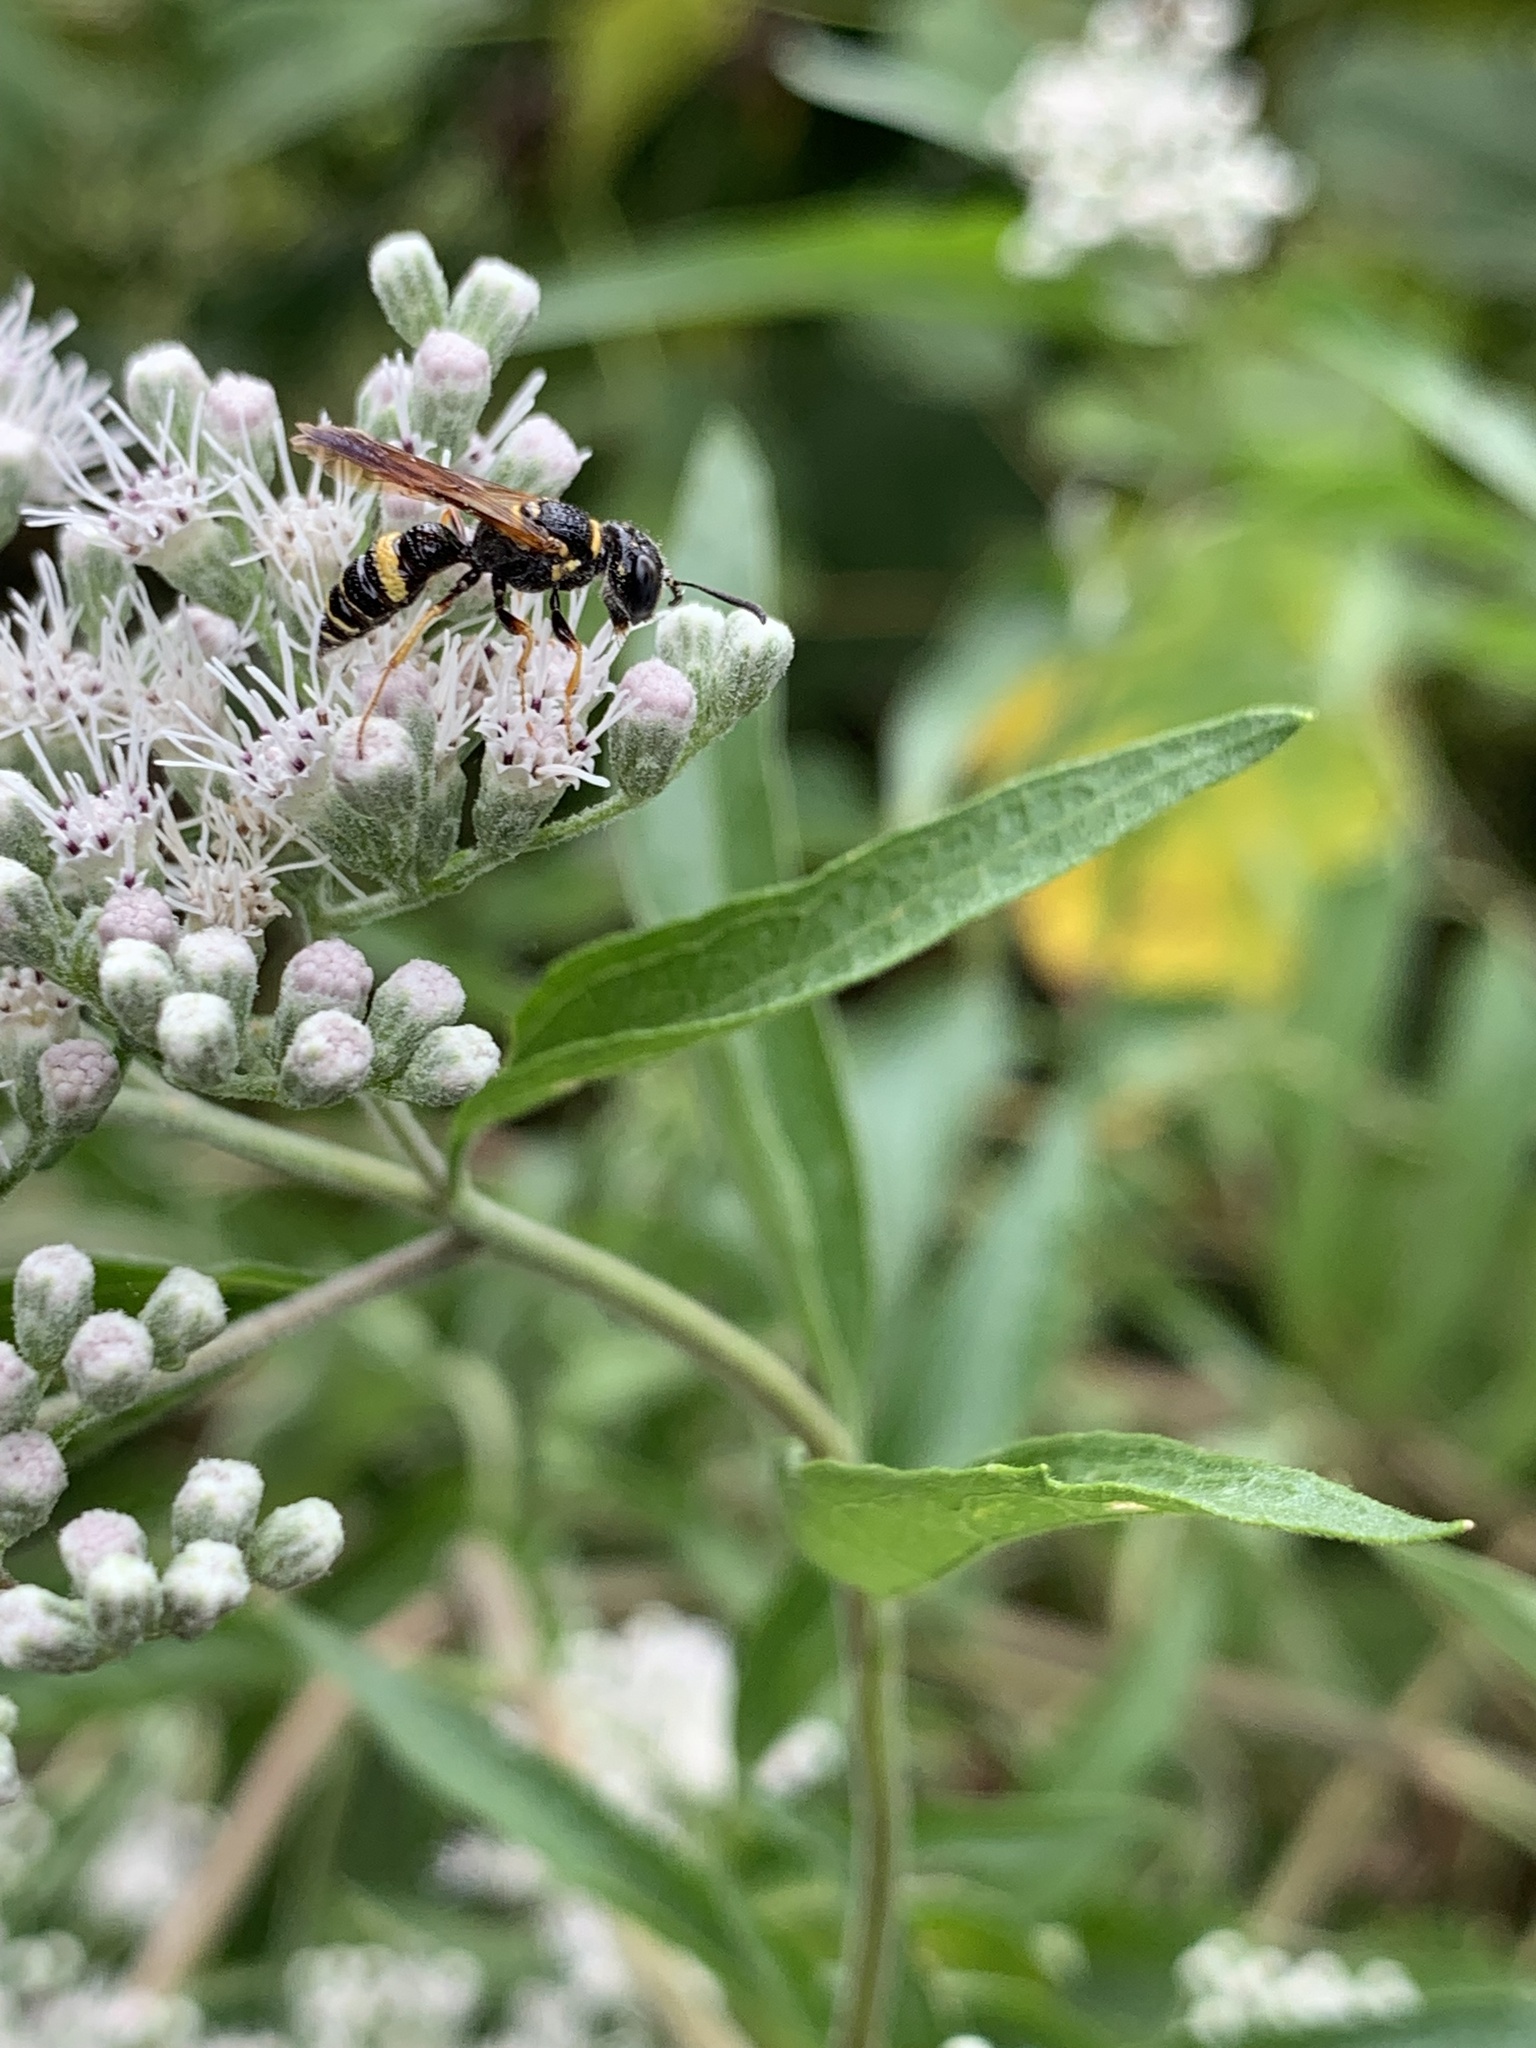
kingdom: Animalia
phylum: Arthropoda
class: Insecta
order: Hymenoptera
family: Crabronidae
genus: Philanthus
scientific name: Philanthus gibbosus
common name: Humped beewolf
